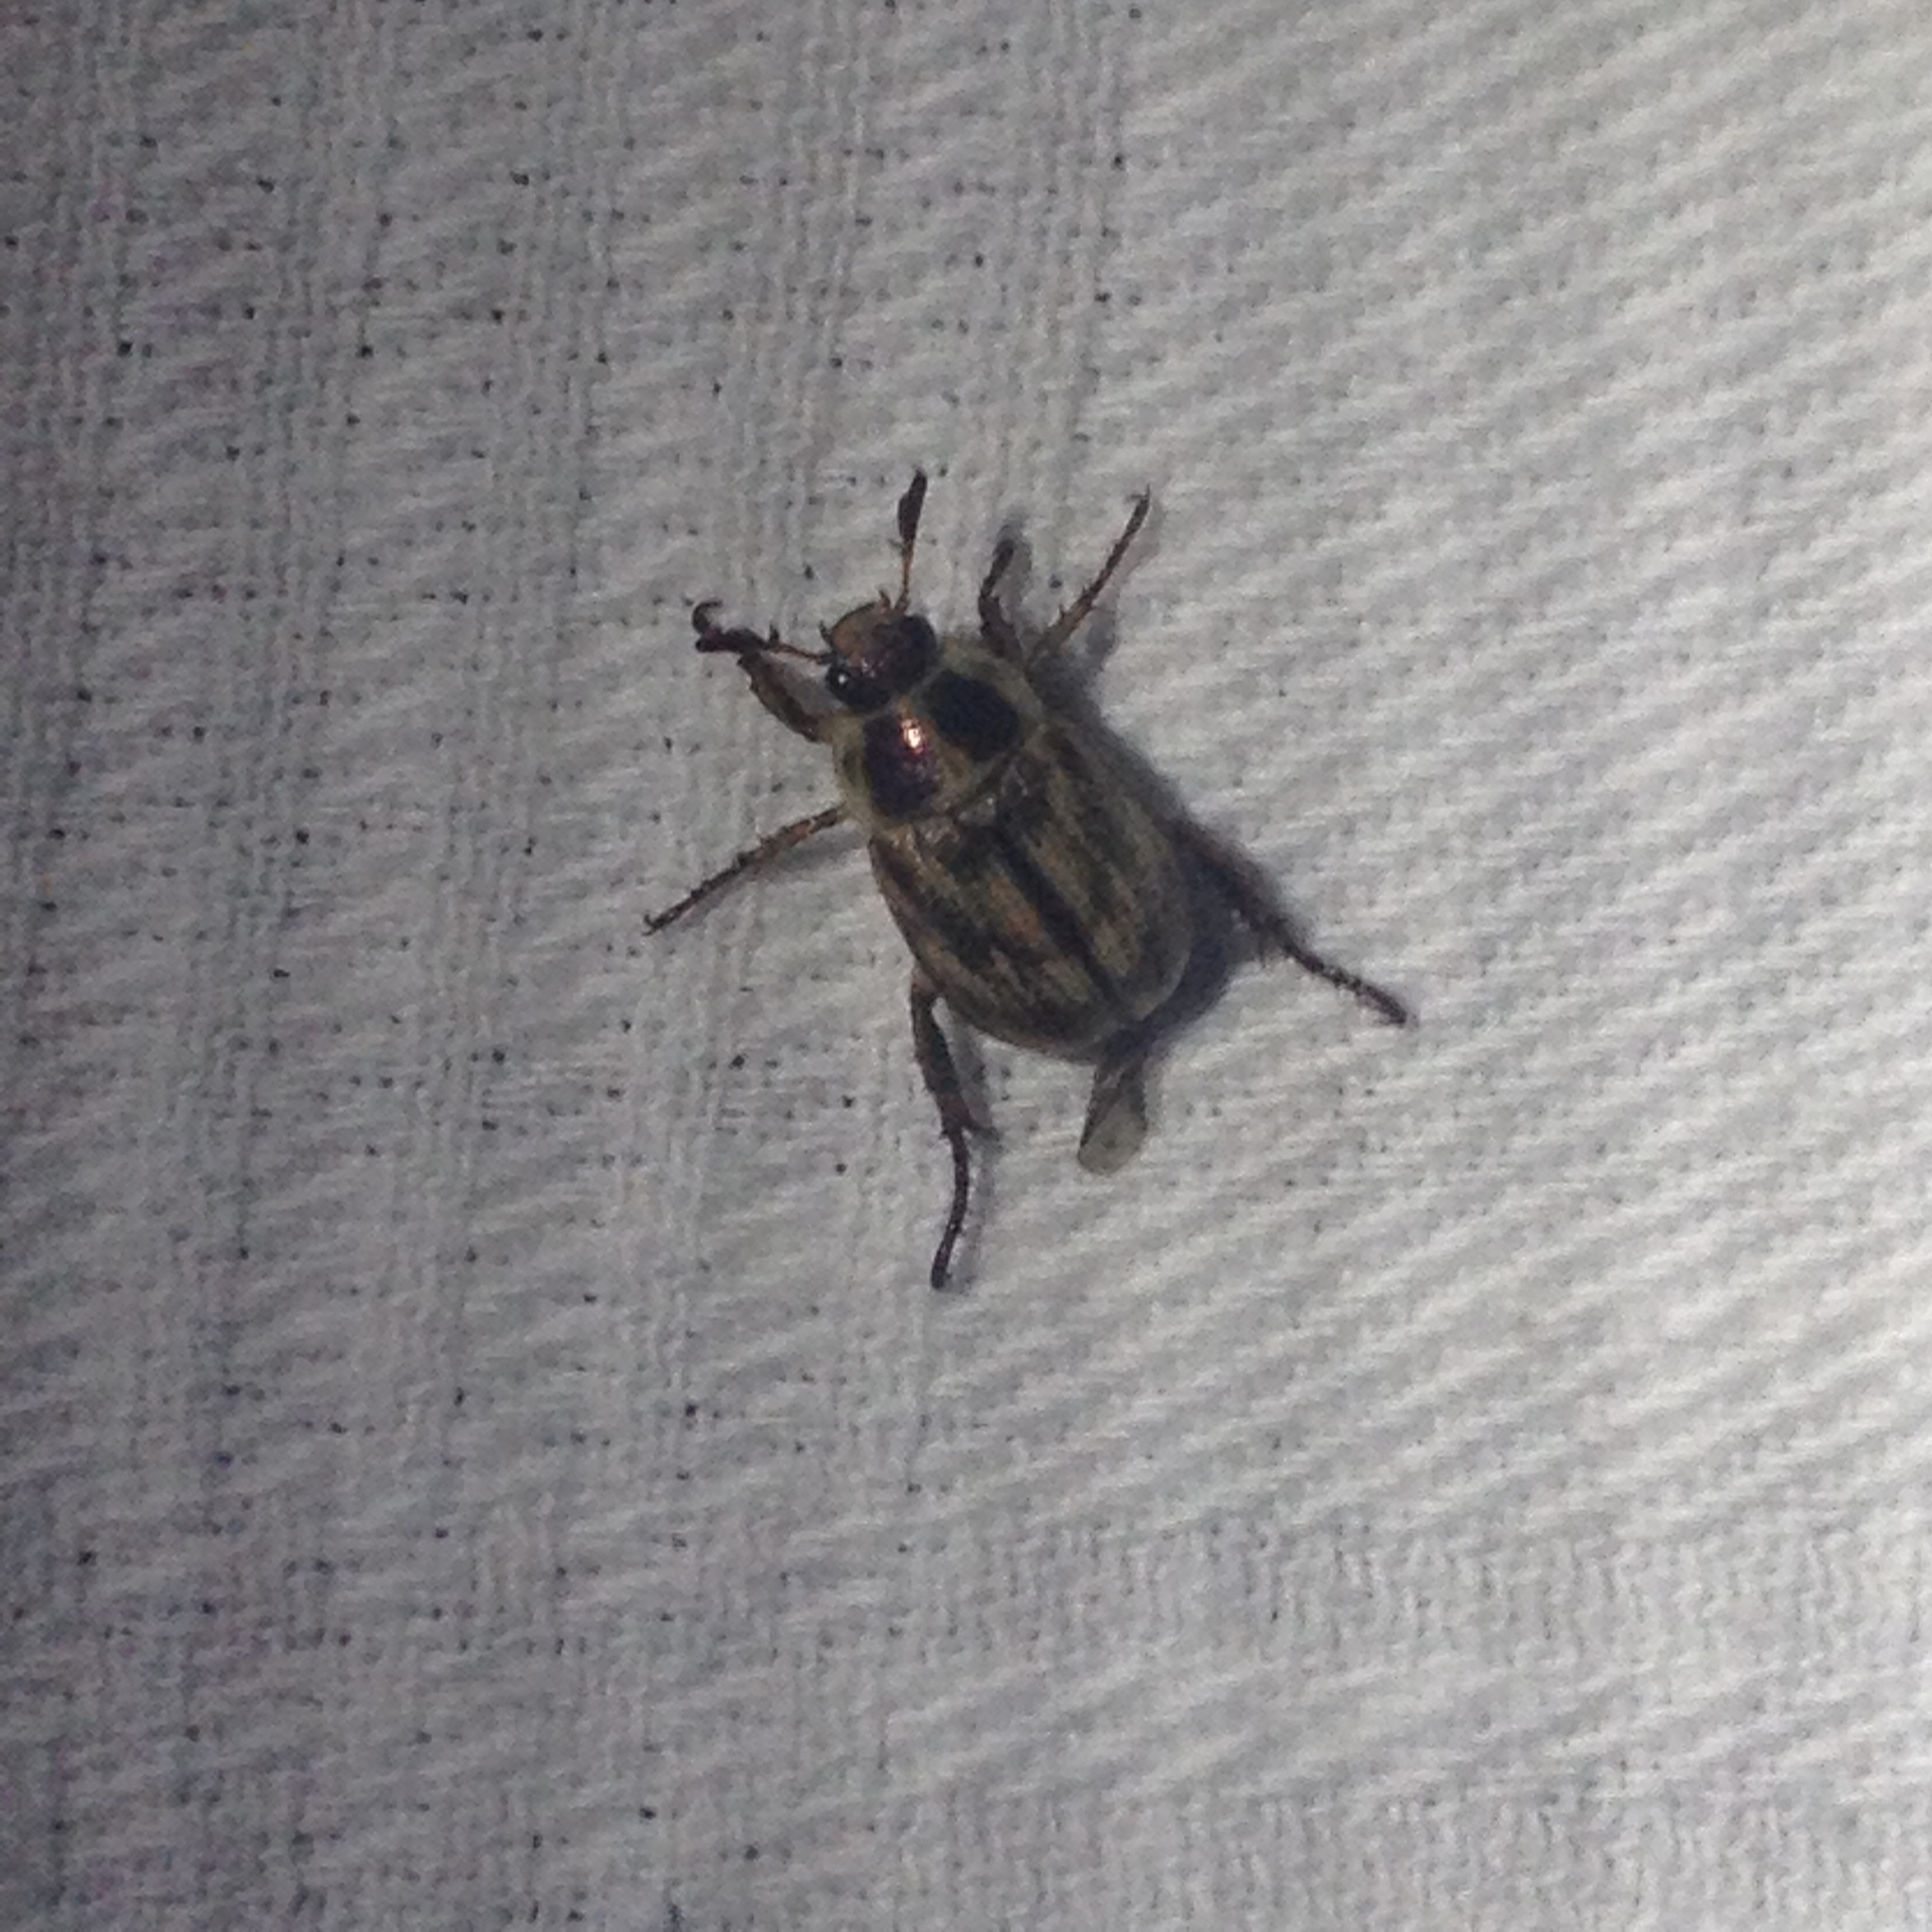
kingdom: Animalia
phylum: Arthropoda
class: Insecta
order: Coleoptera
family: Scarabaeidae
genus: Exomala
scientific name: Exomala orientalis
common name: Oriental beetle
